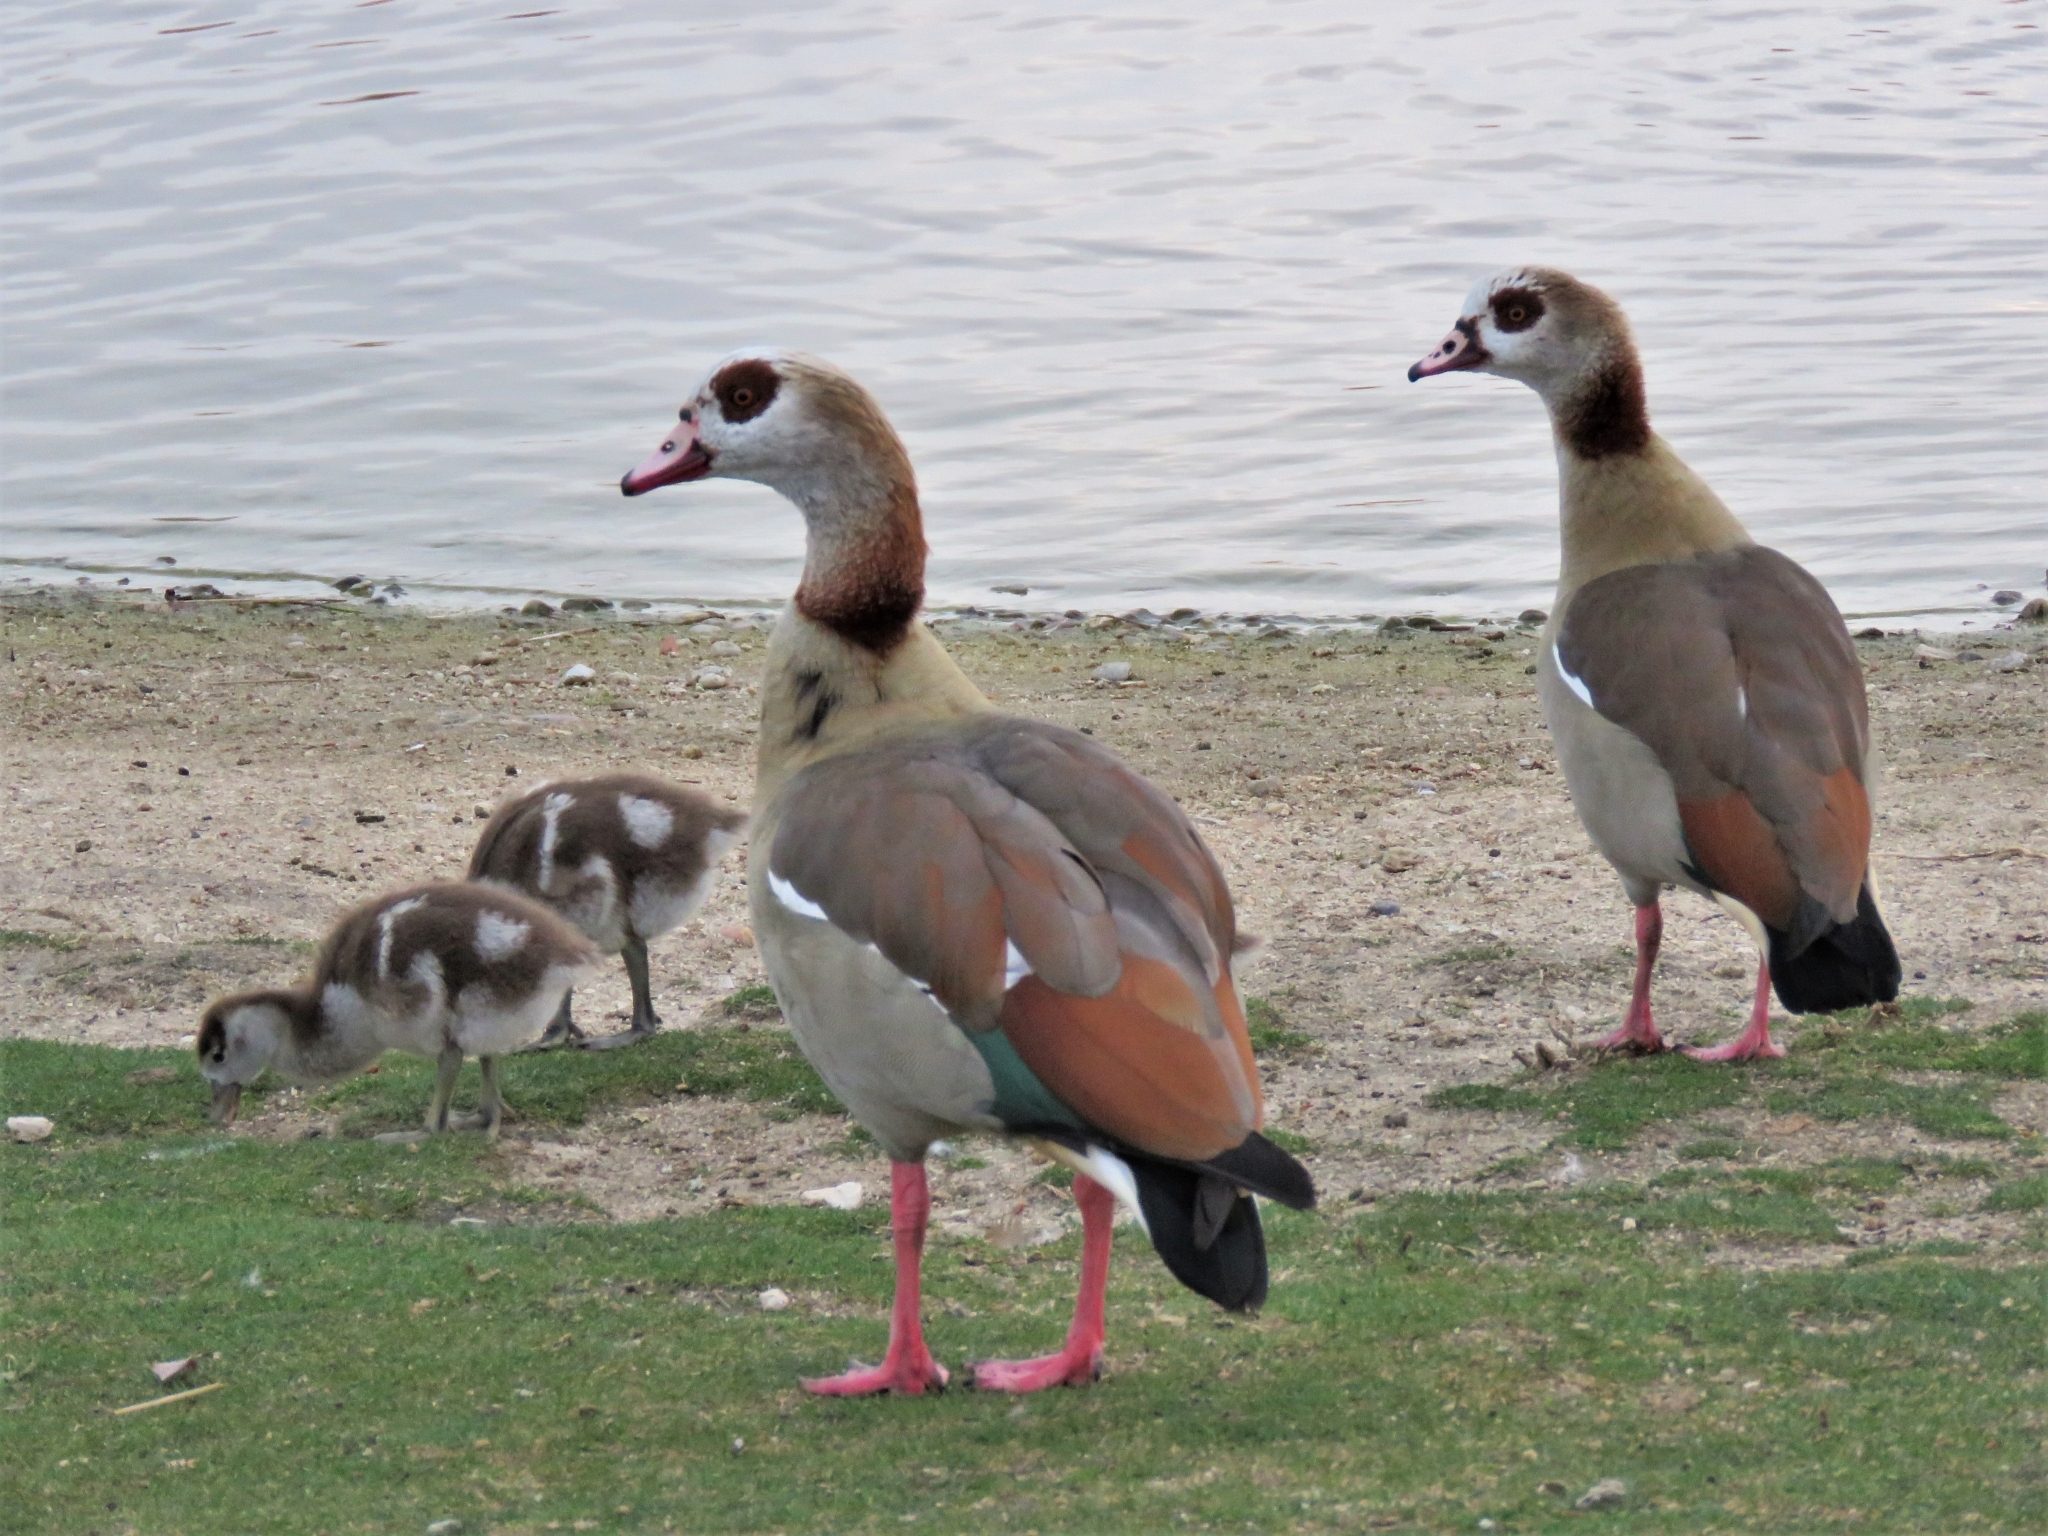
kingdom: Animalia
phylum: Chordata
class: Aves
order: Anseriformes
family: Anatidae
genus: Alopochen
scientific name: Alopochen aegyptiaca
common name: Egyptian goose
